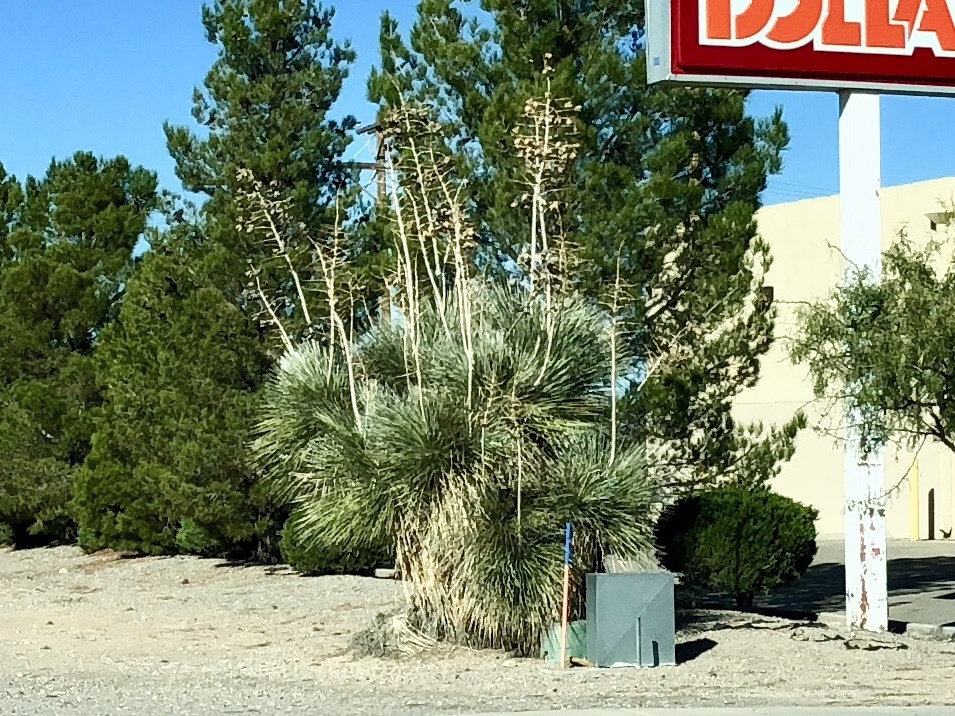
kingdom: Plantae
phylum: Tracheophyta
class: Liliopsida
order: Asparagales
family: Asparagaceae
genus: Yucca
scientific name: Yucca elata
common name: Palmella
